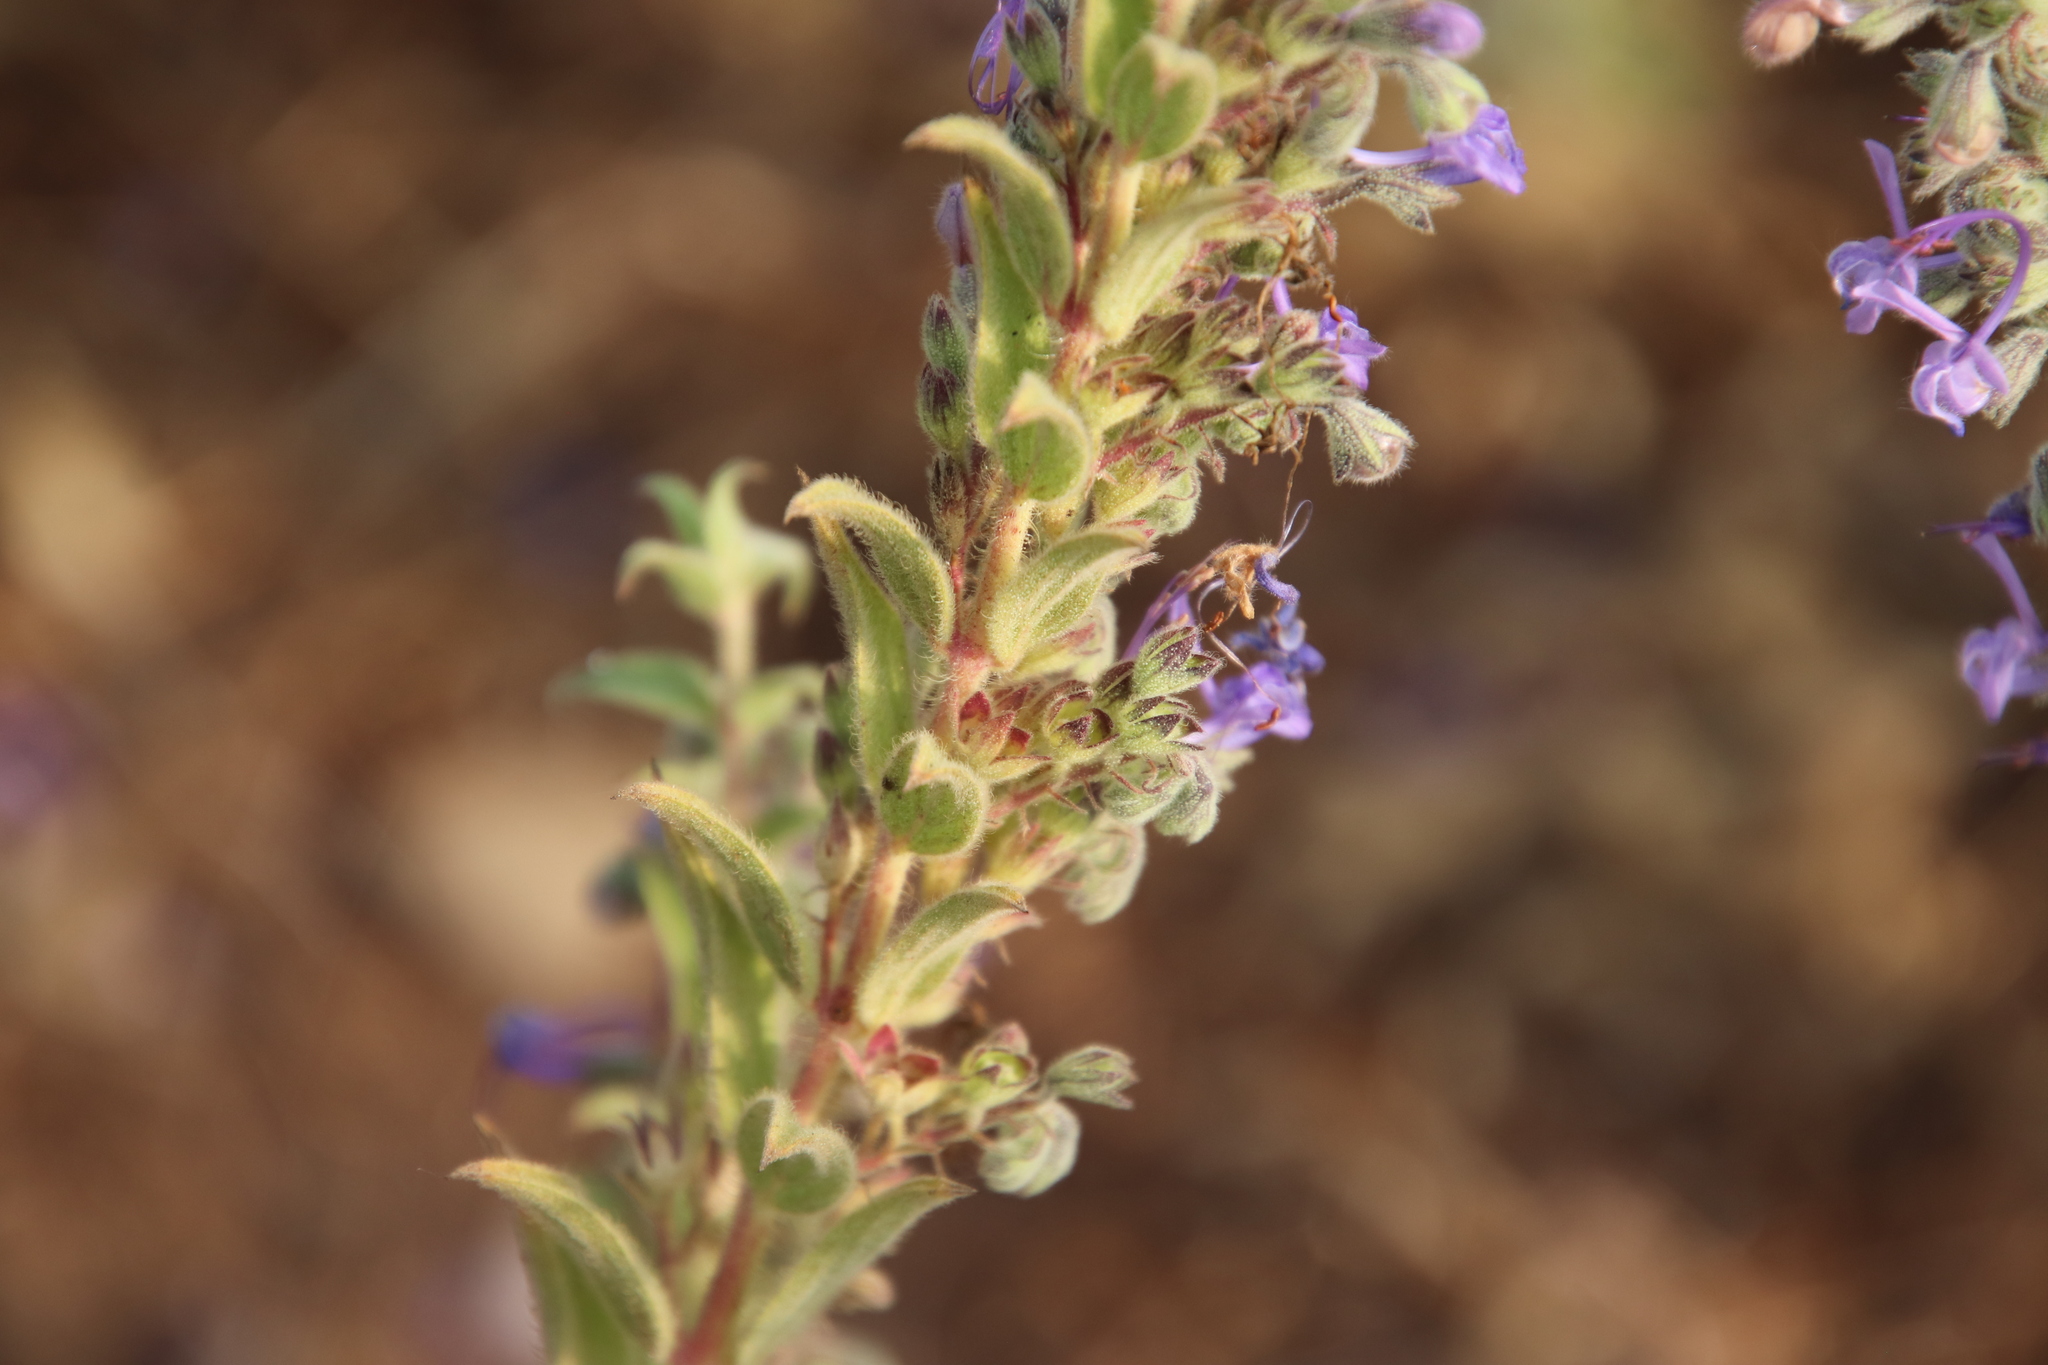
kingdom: Plantae
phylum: Tracheophyta
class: Magnoliopsida
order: Lamiales
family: Lamiaceae
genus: Trichostema
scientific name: Trichostema lanceolatum
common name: Vinegar-weed
